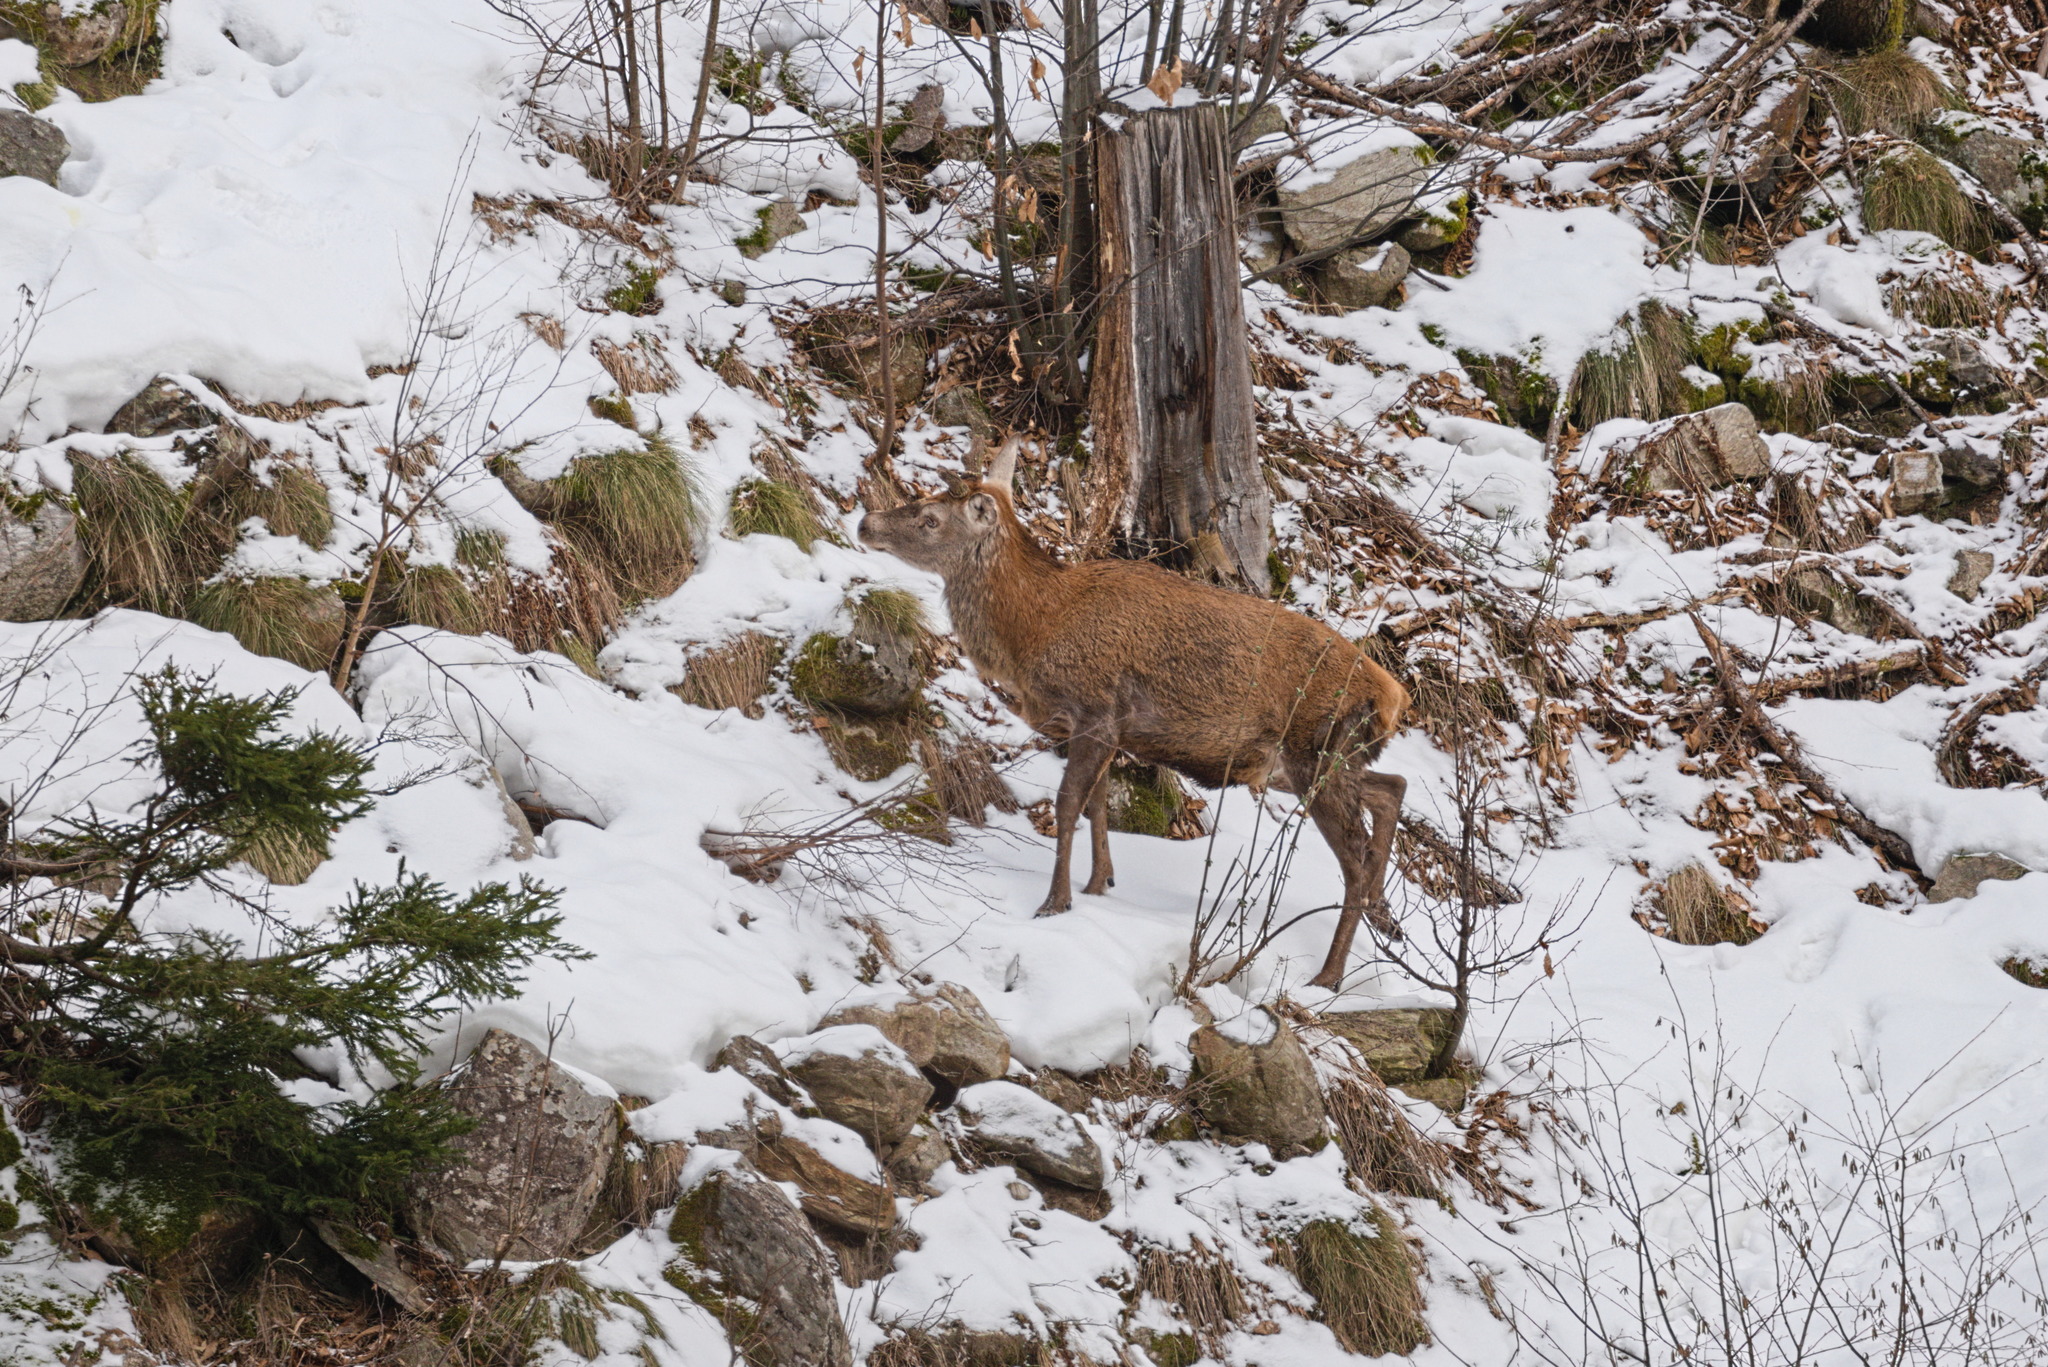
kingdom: Animalia
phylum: Chordata
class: Mammalia
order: Artiodactyla
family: Cervidae
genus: Cervus
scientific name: Cervus elaphus
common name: Red deer
